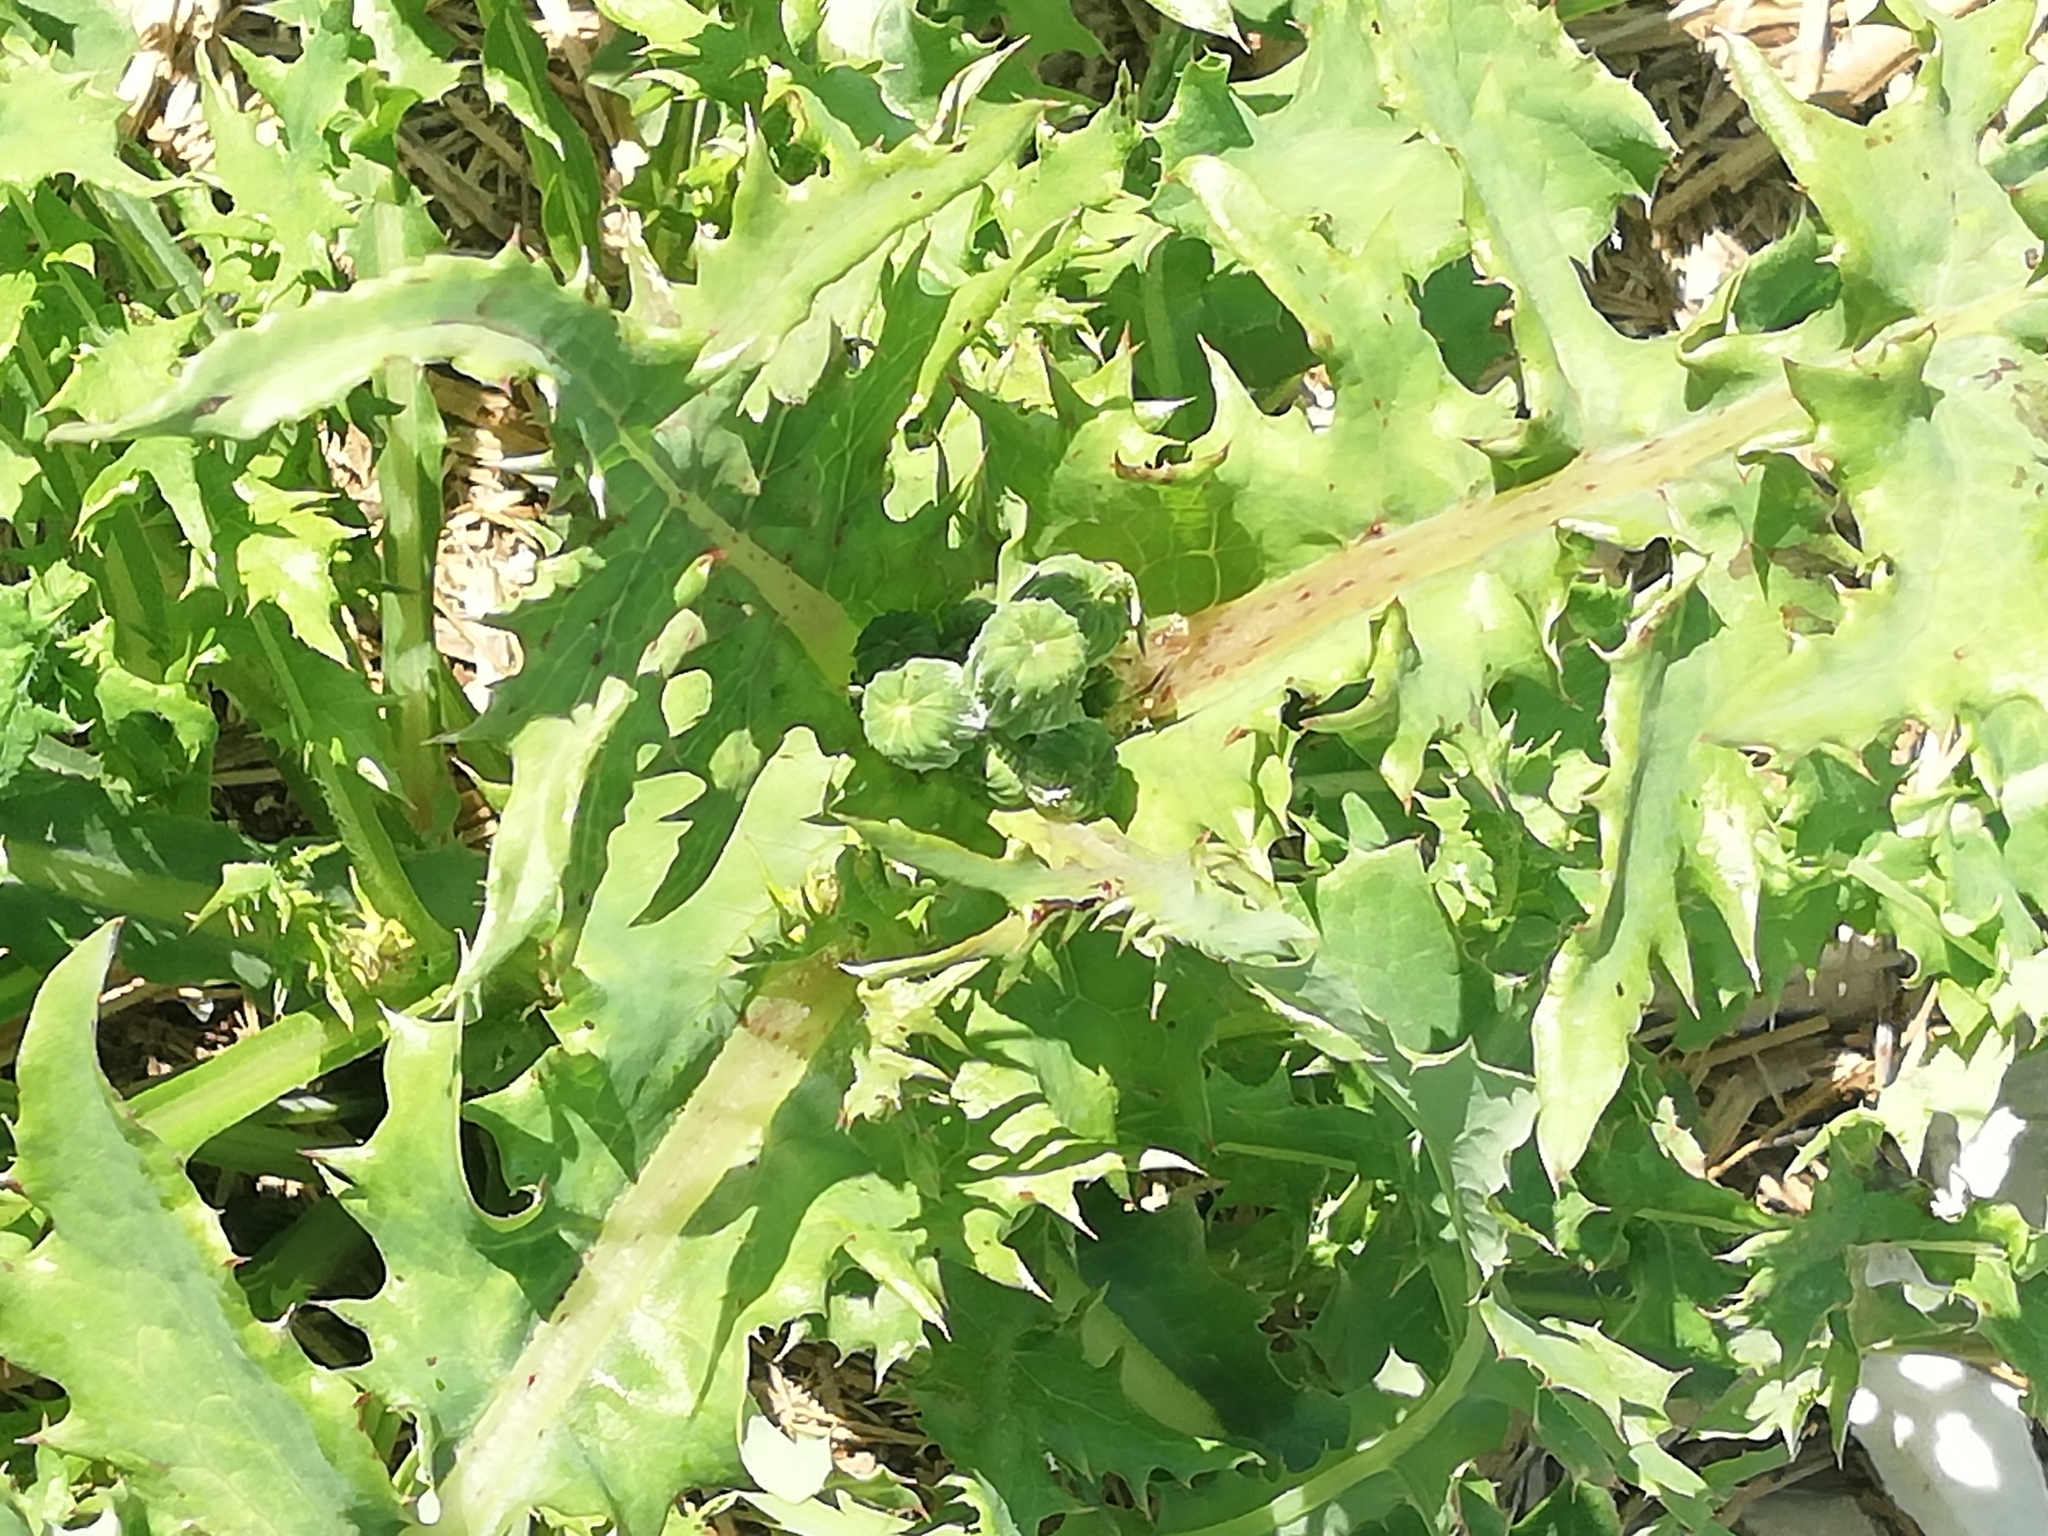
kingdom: Plantae
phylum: Tracheophyta
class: Magnoliopsida
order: Asterales
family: Asteraceae
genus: Carduus
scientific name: Carduus acanthoides
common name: Plumeless thistle
